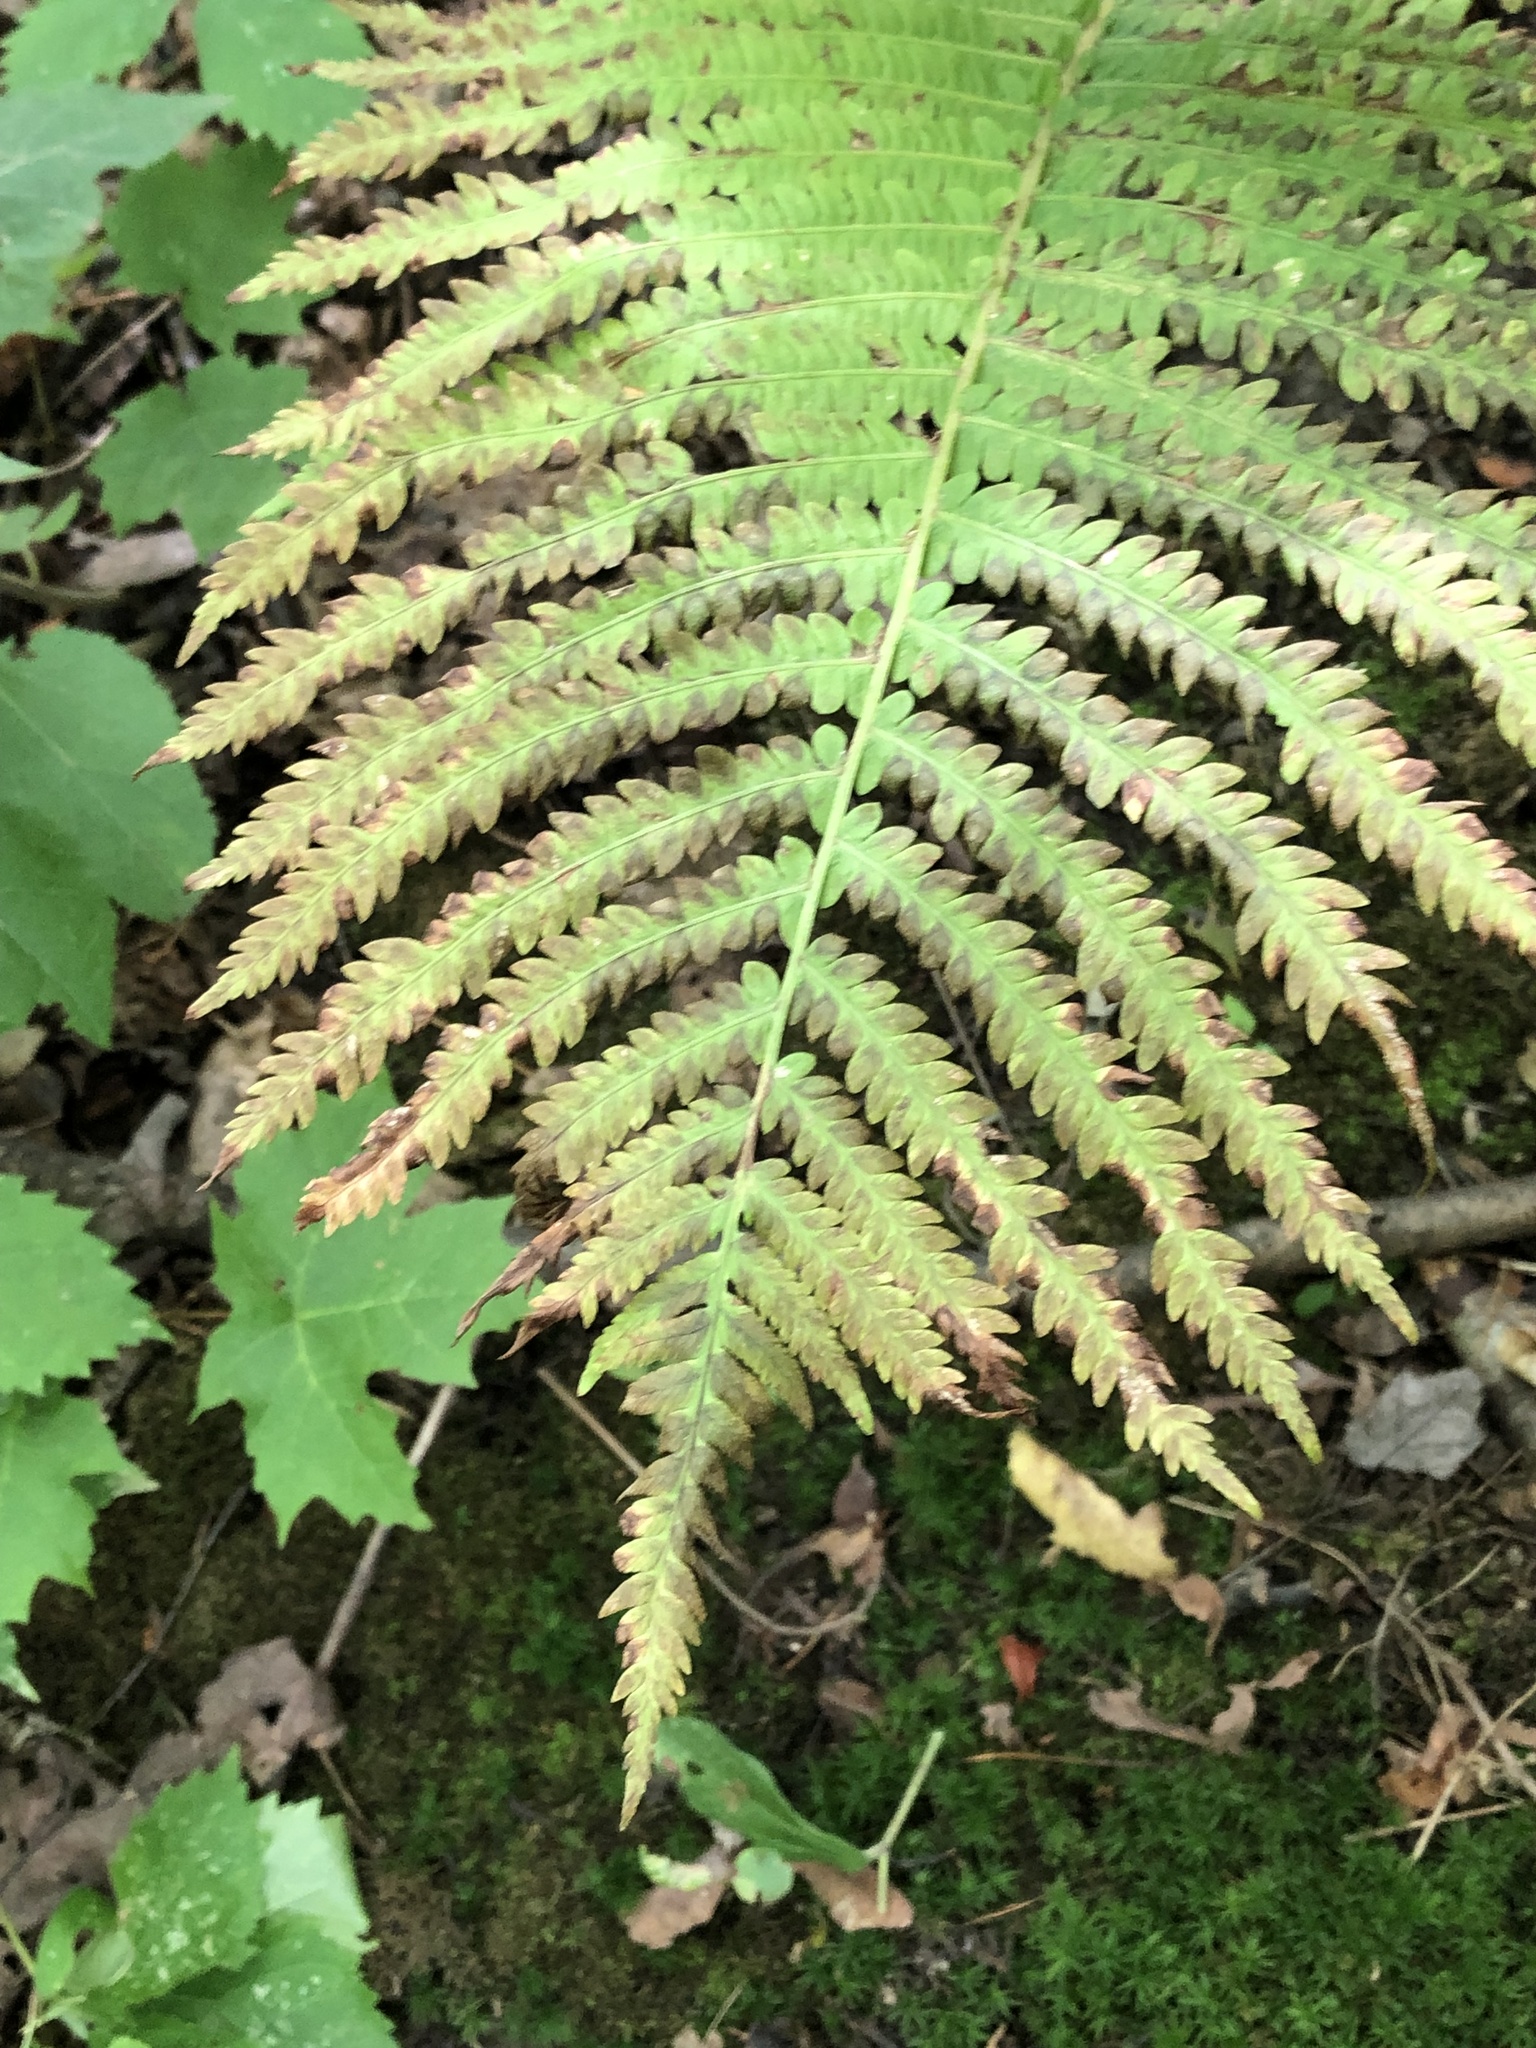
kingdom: Plantae
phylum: Tracheophyta
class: Polypodiopsida
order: Polypodiales
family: Onocleaceae
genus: Matteuccia
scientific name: Matteuccia struthiopteris
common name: Ostrich fern
